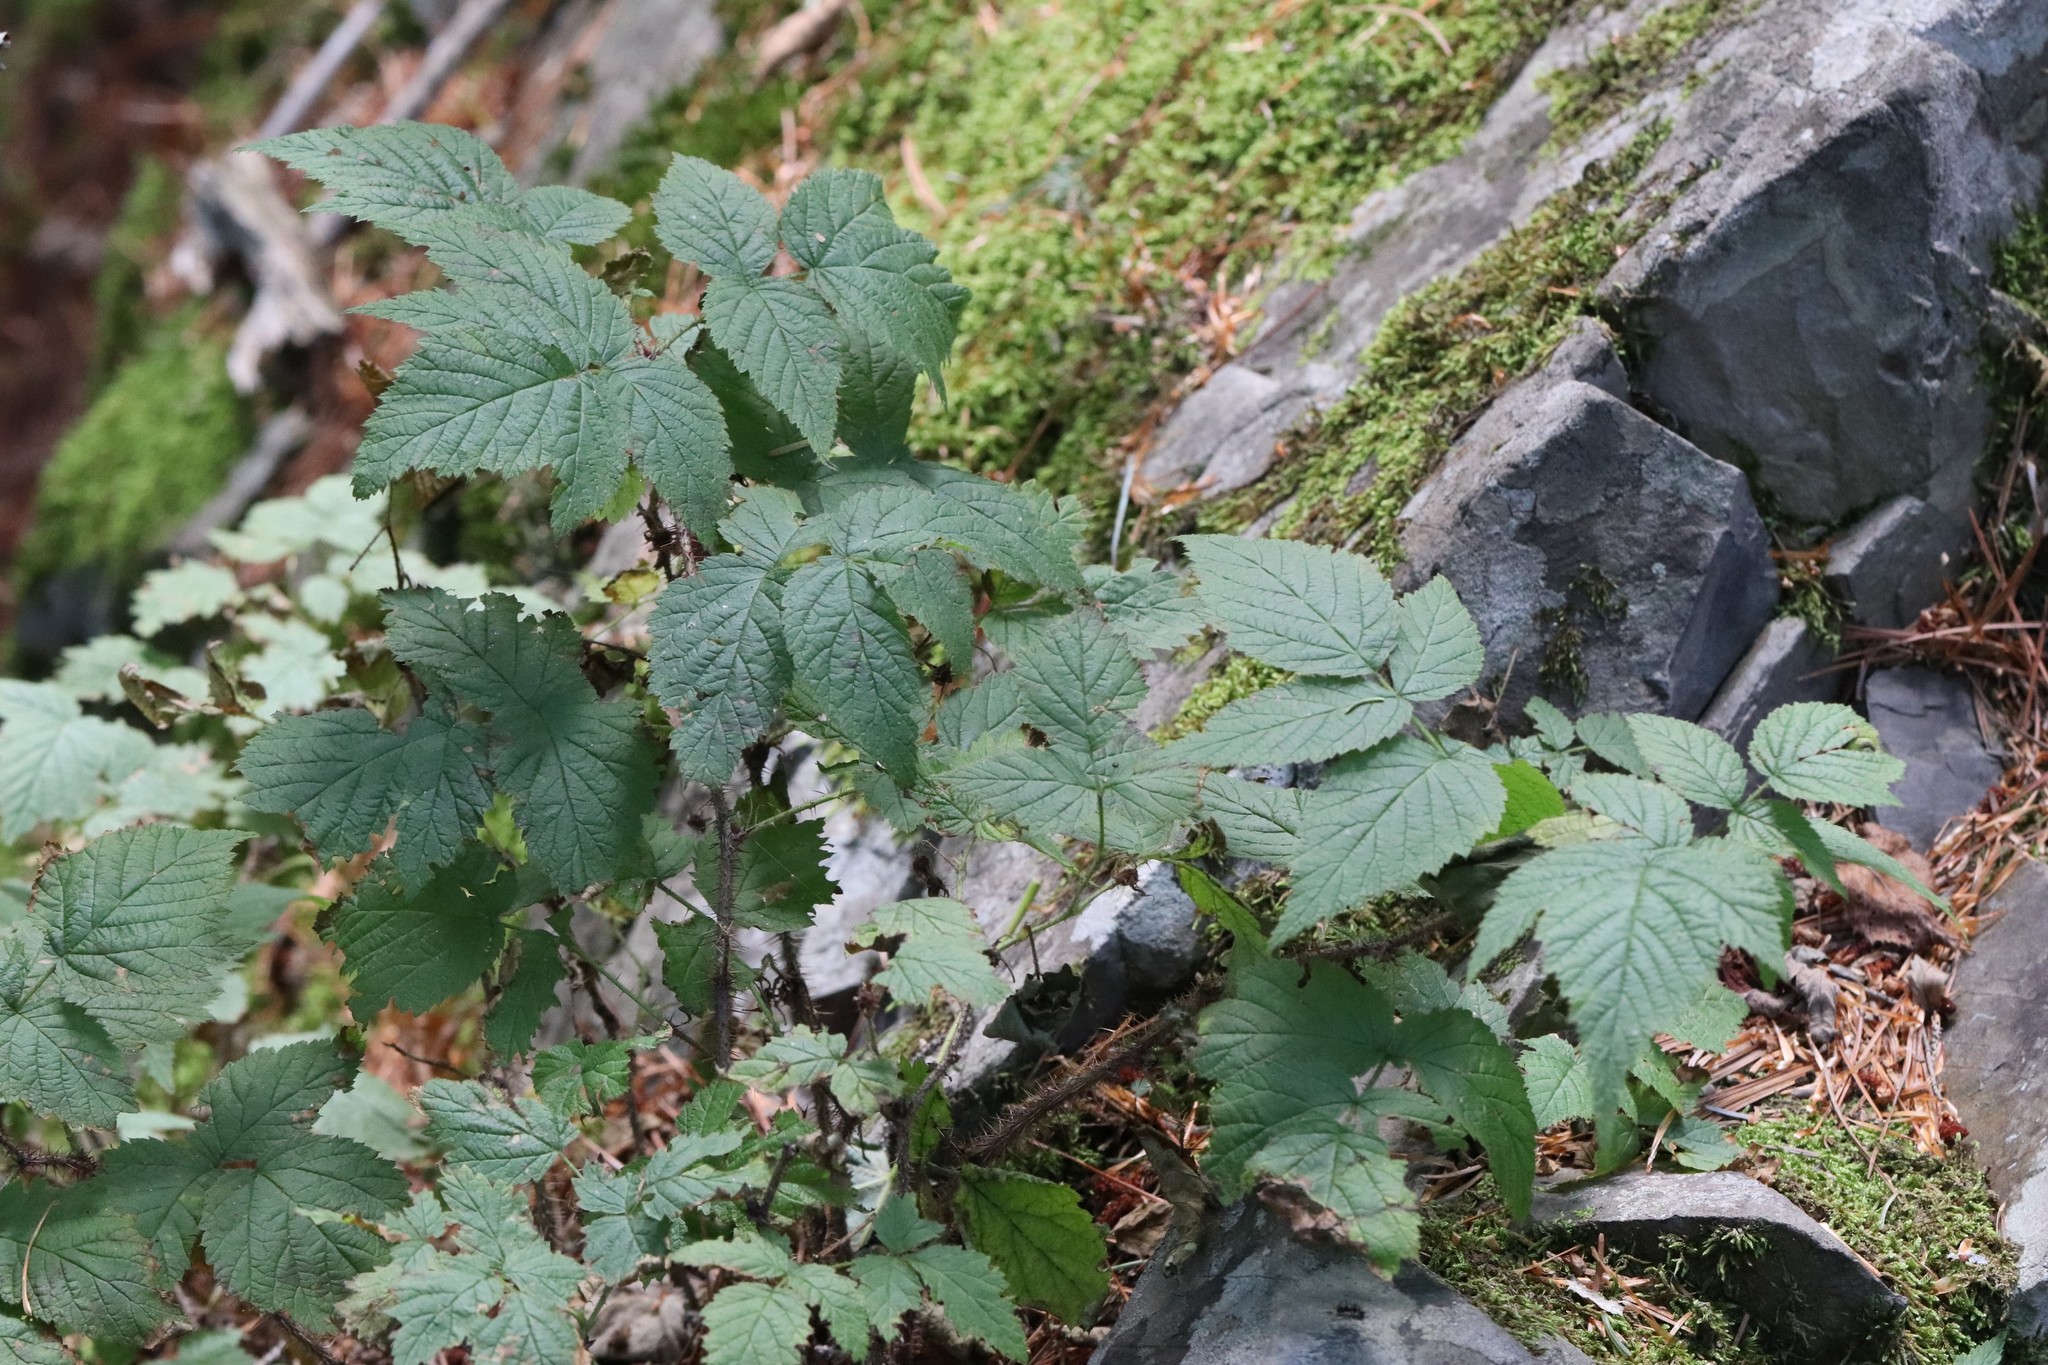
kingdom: Plantae
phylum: Tracheophyta
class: Magnoliopsida
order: Rosales
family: Rosaceae
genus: Rubus
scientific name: Rubus sachalinensis
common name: Red raspberry
